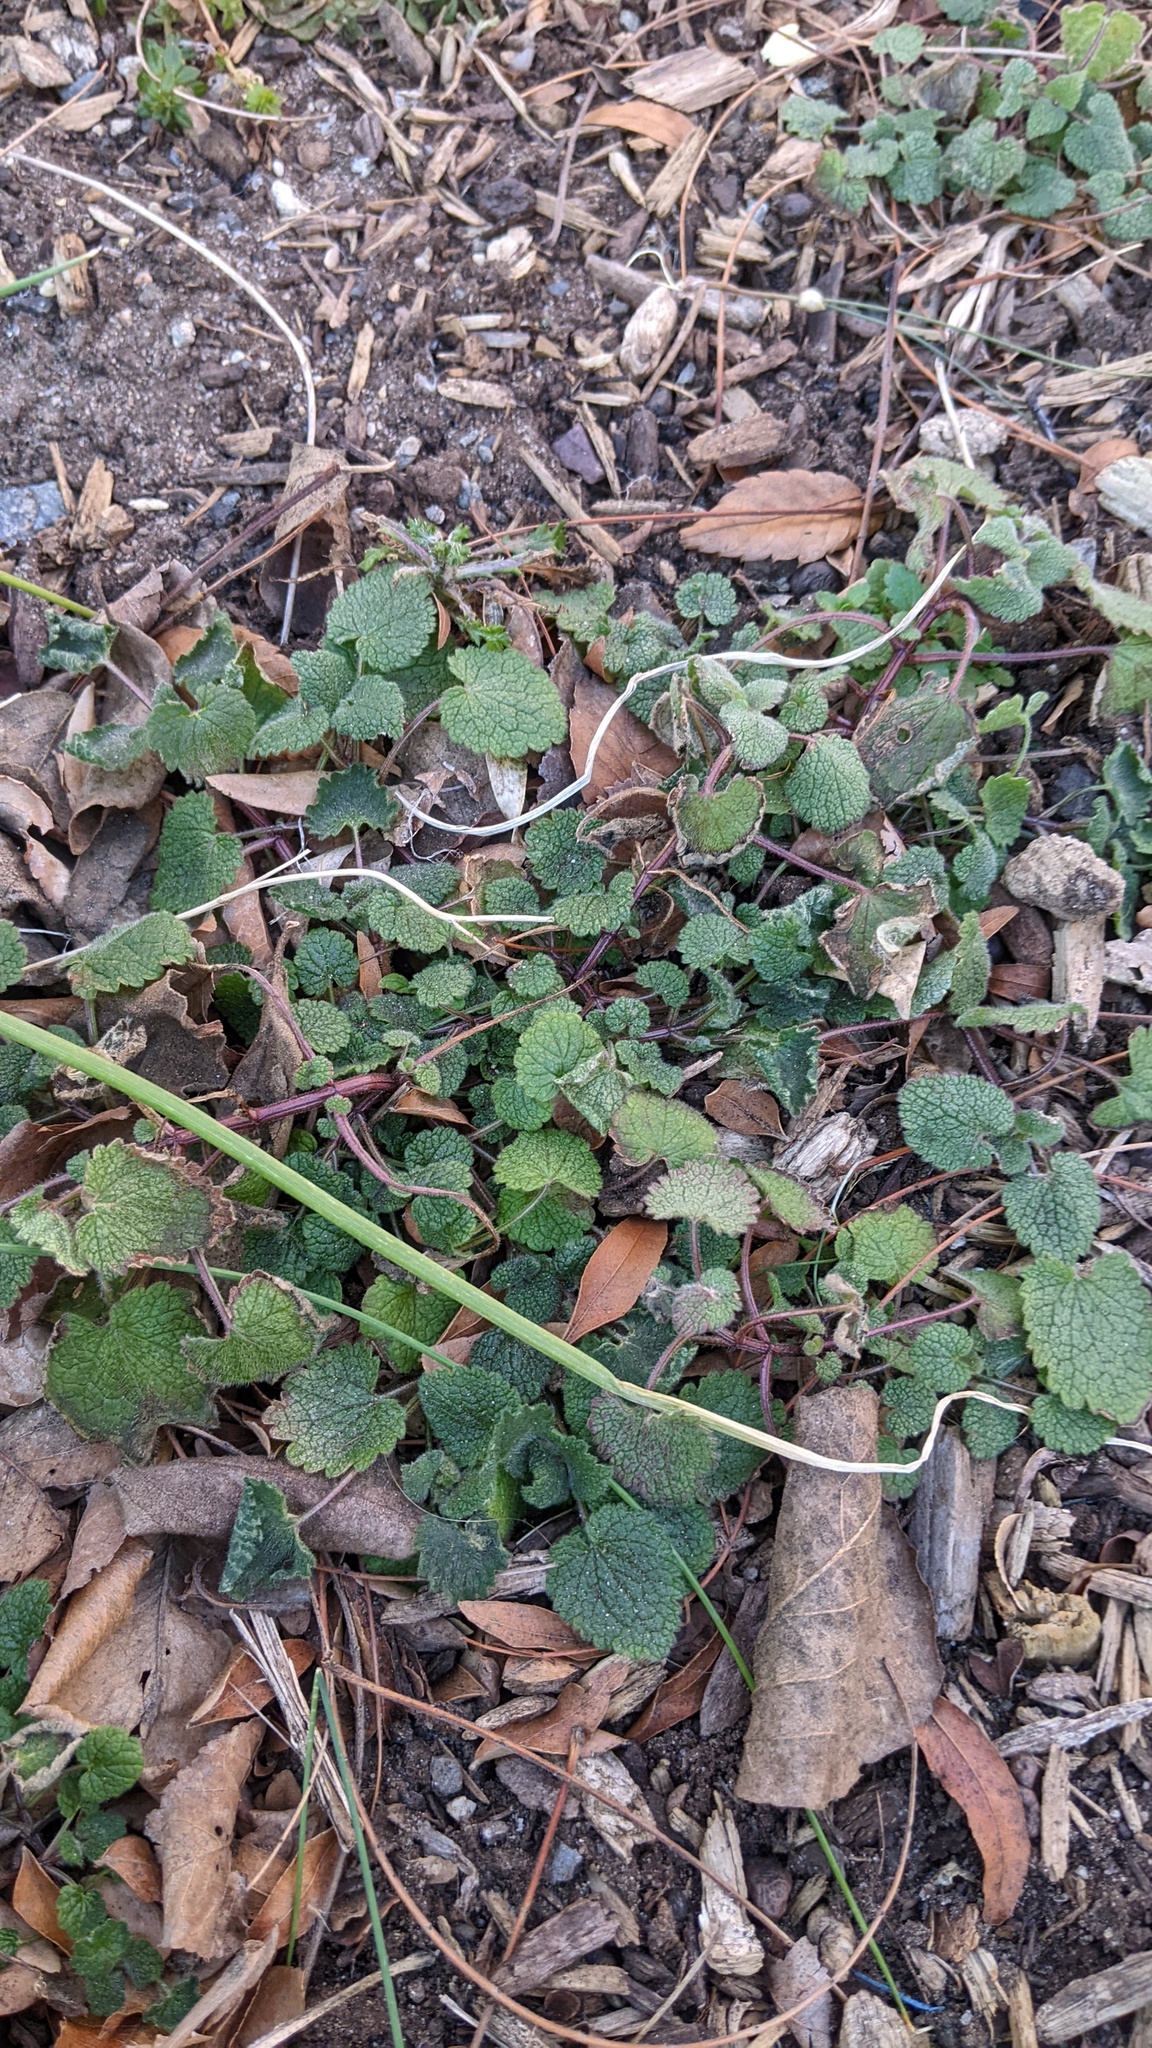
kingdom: Plantae
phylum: Tracheophyta
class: Magnoliopsida
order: Lamiales
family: Lamiaceae
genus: Lamium
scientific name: Lamium purpureum
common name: Red dead-nettle
